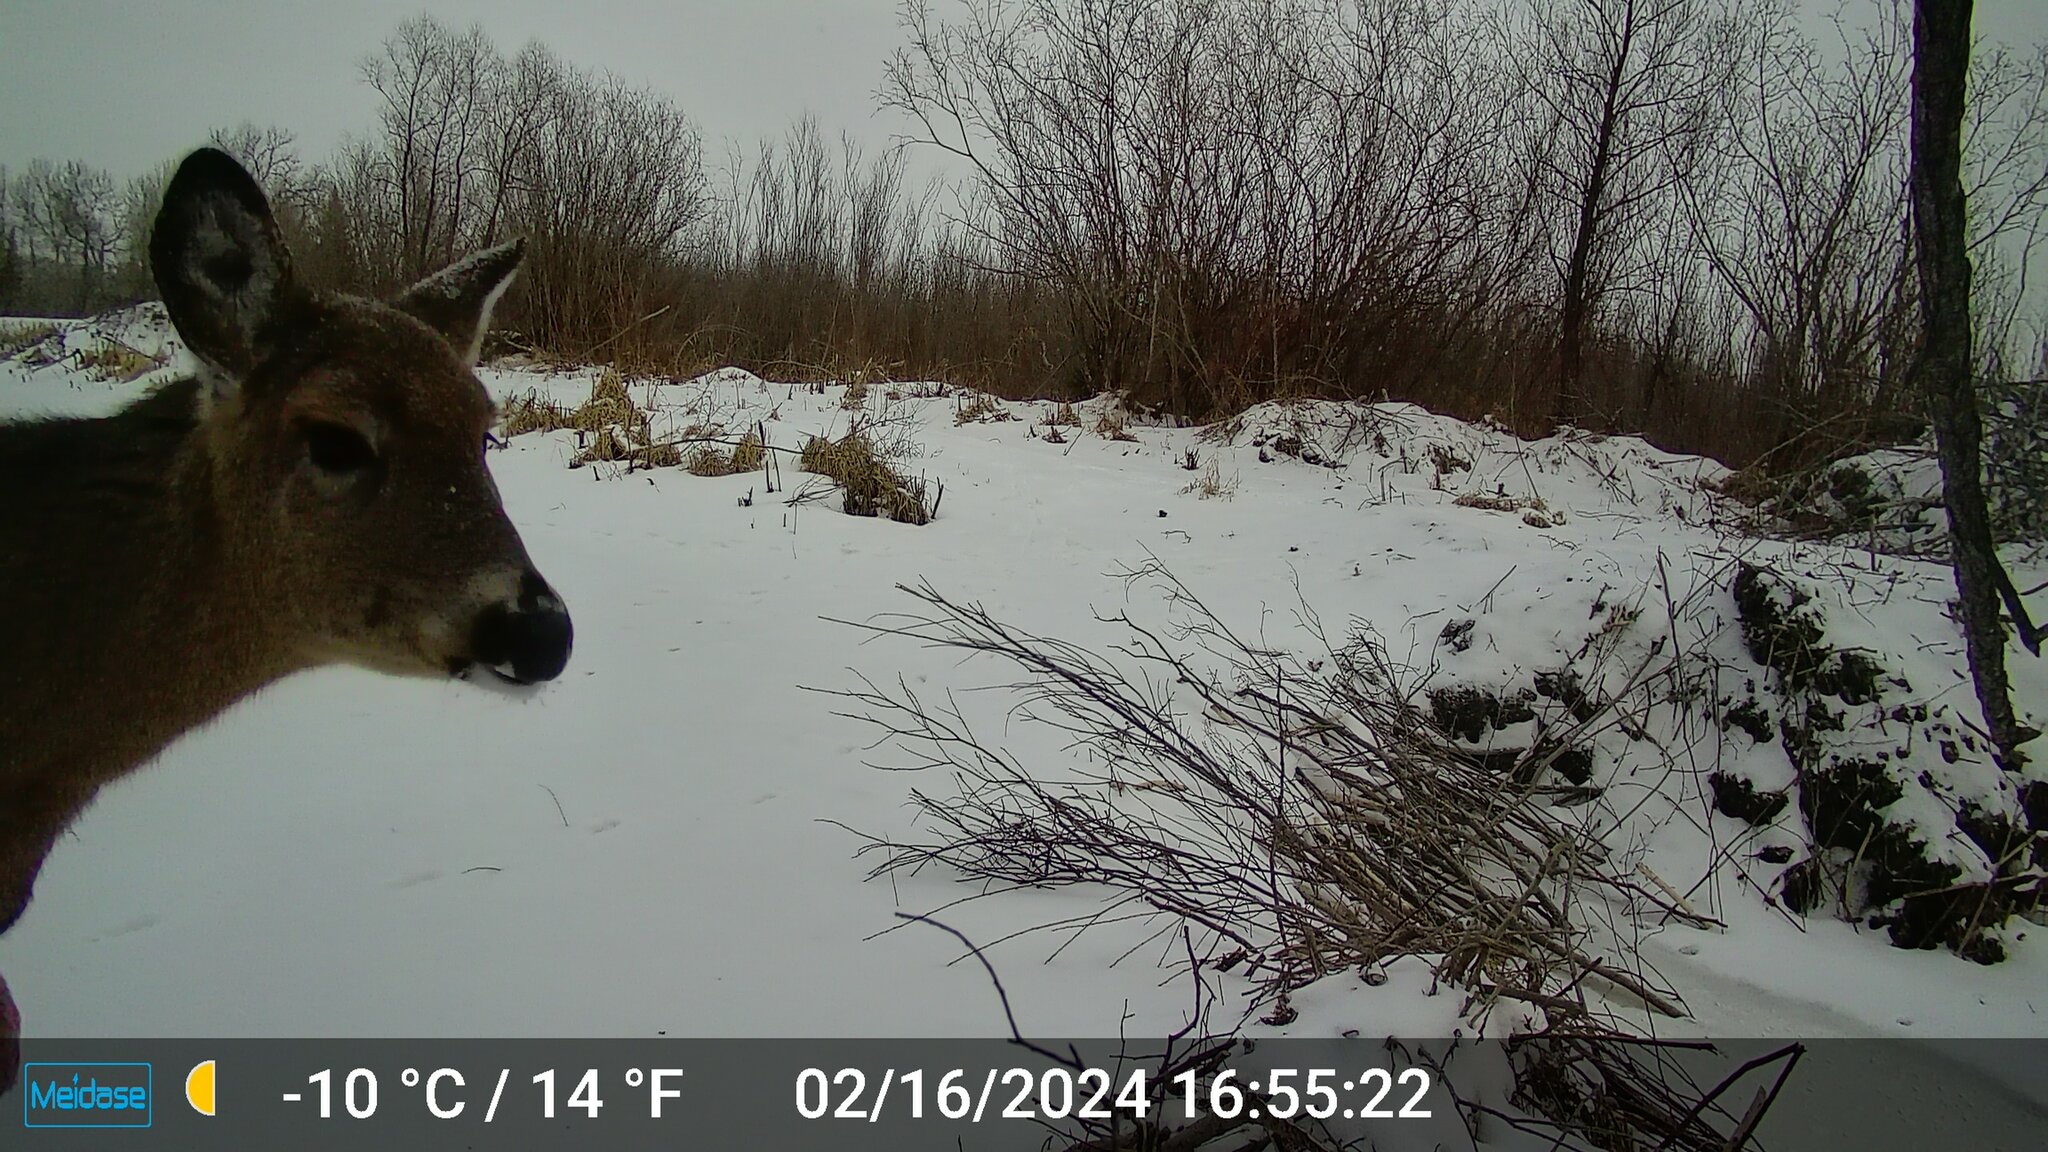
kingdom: Animalia
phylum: Chordata
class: Mammalia
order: Artiodactyla
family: Cervidae
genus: Odocoileus
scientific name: Odocoileus virginianus
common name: White-tailed deer
